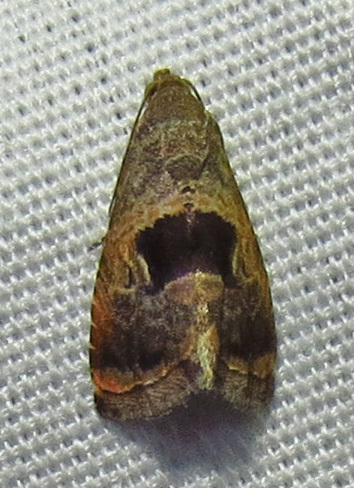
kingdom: Animalia
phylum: Arthropoda
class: Insecta
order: Lepidoptera
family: Noctuidae
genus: Tripudia
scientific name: Tripudia quadrifera
